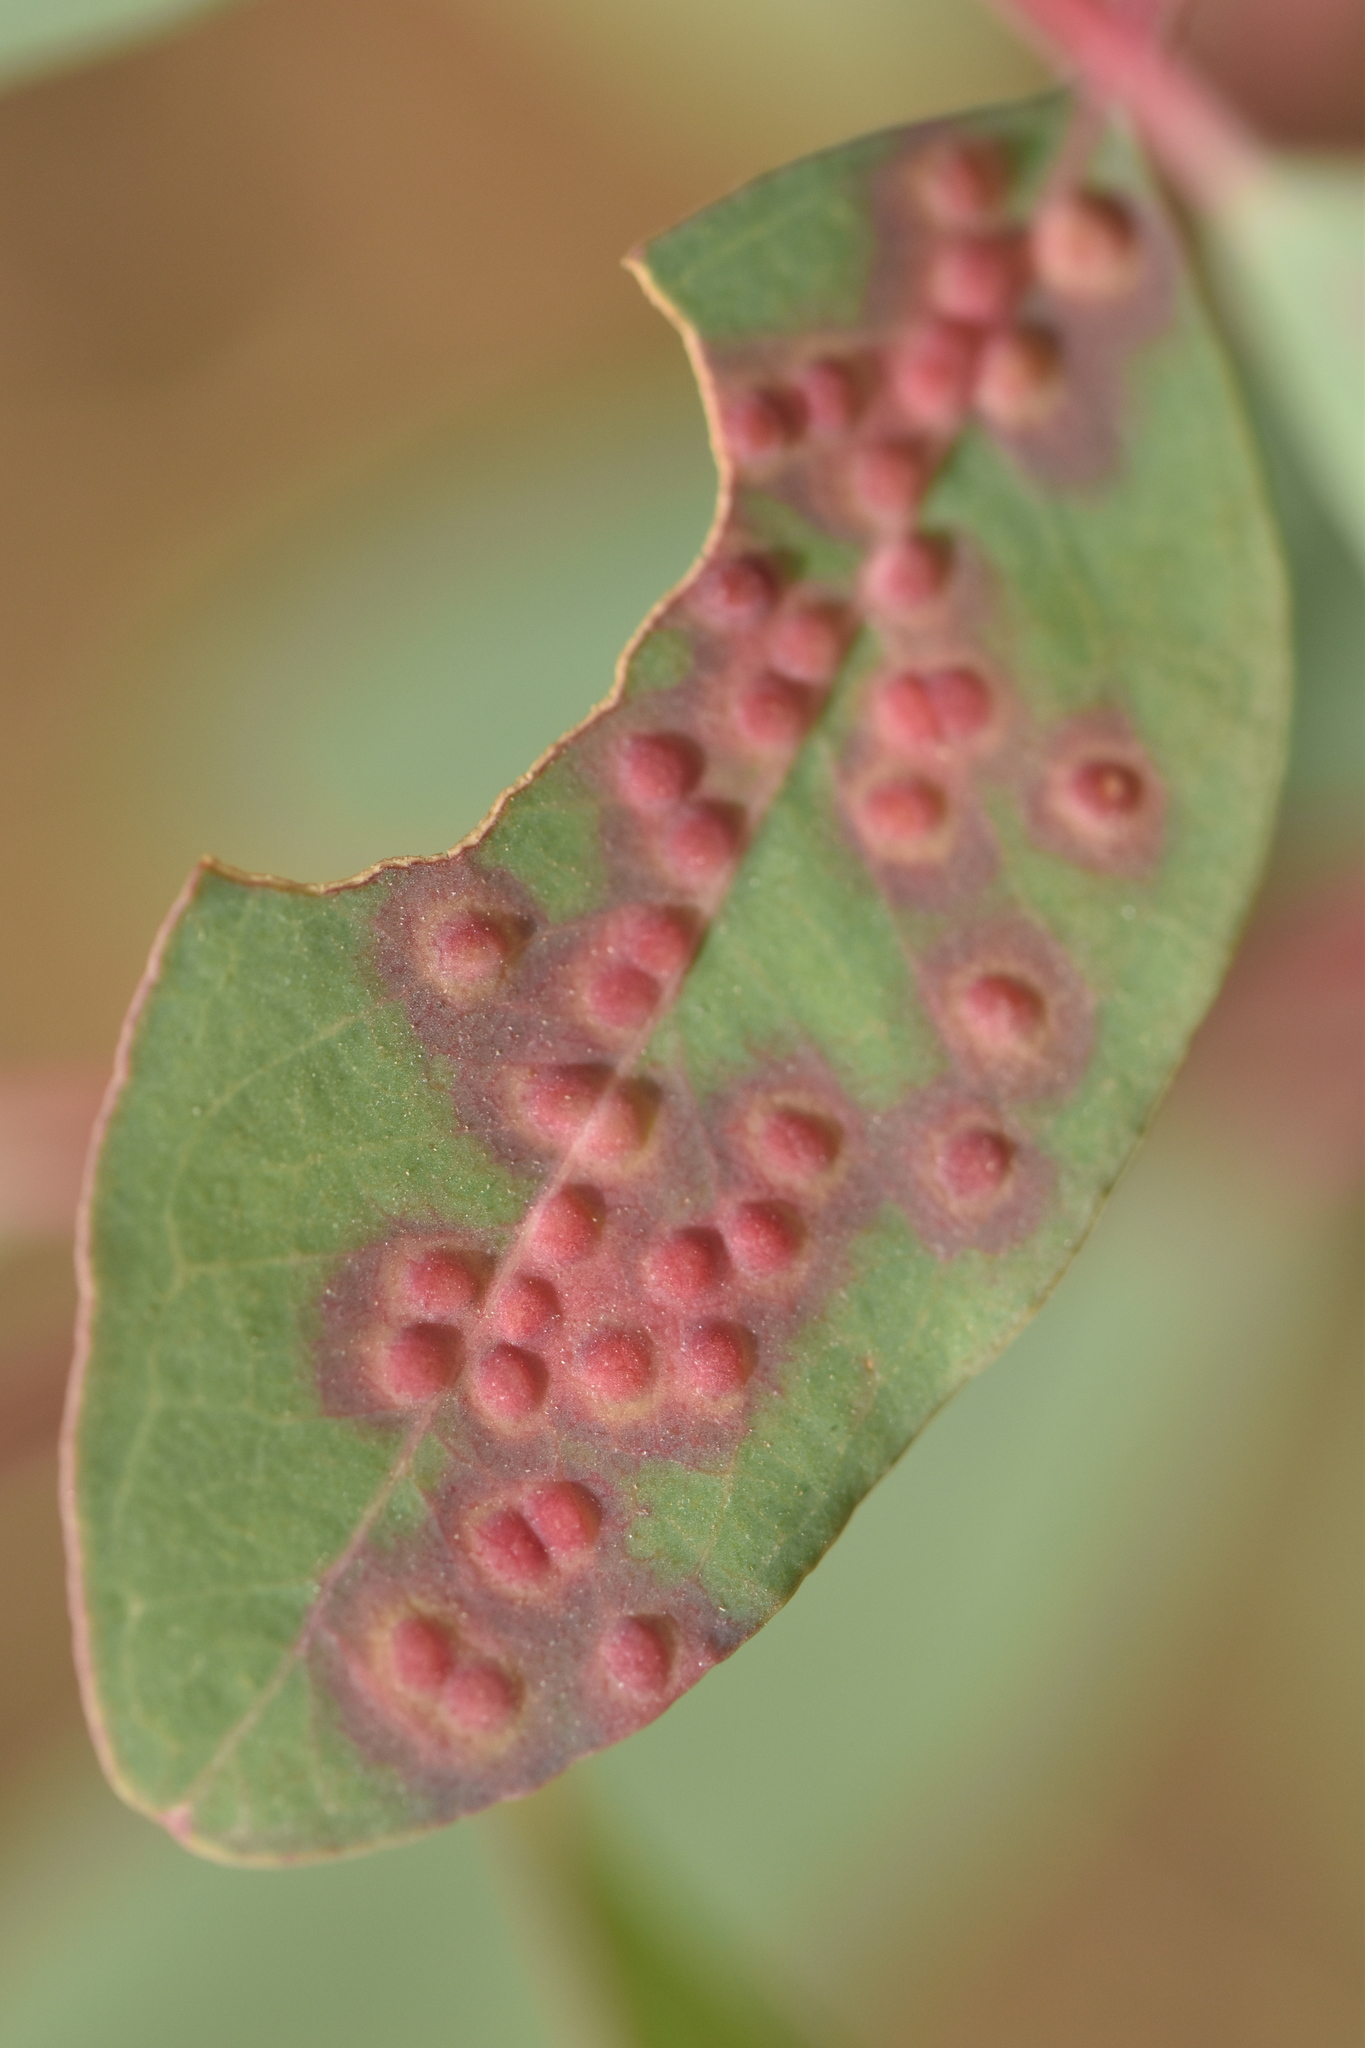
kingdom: Animalia
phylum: Arthropoda
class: Insecta
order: Hymenoptera
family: Eulophidae
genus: Ophelimus
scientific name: Ophelimus maskelli
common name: Gall wasp
